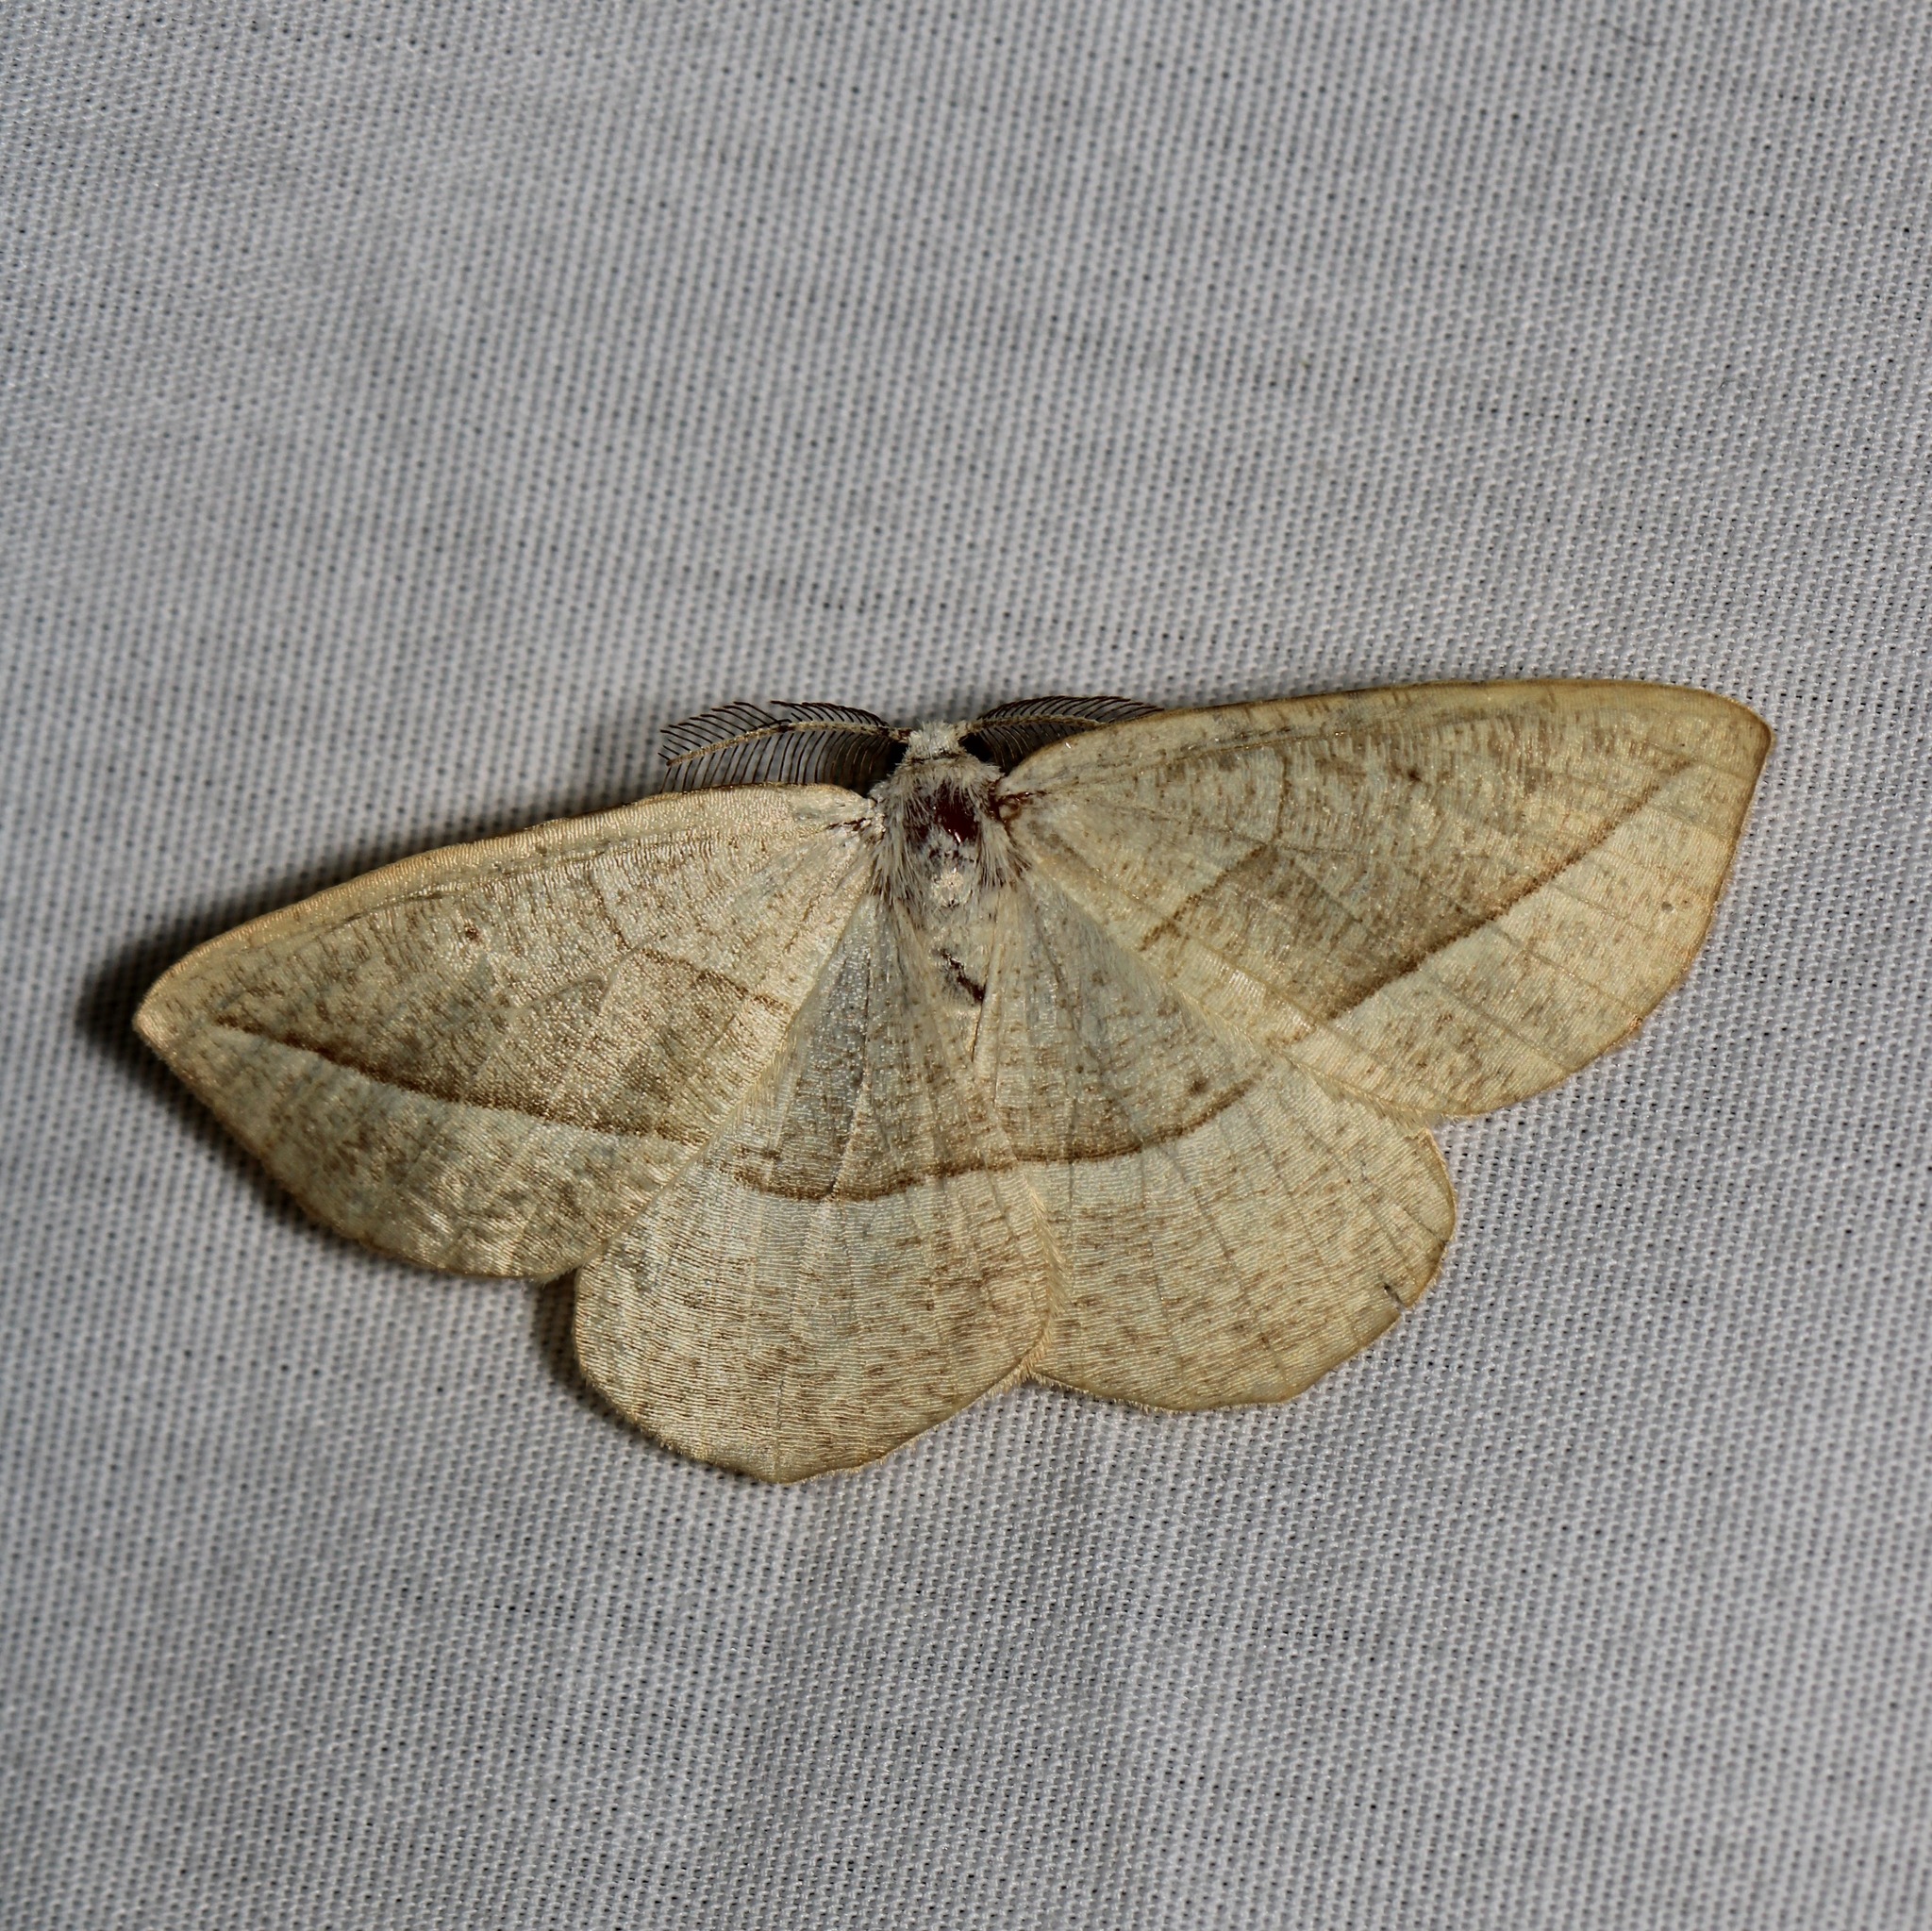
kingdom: Animalia
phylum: Arthropoda
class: Insecta
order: Lepidoptera
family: Geometridae
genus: Eusarca
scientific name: Eusarca confusaria
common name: Confused eusarca
